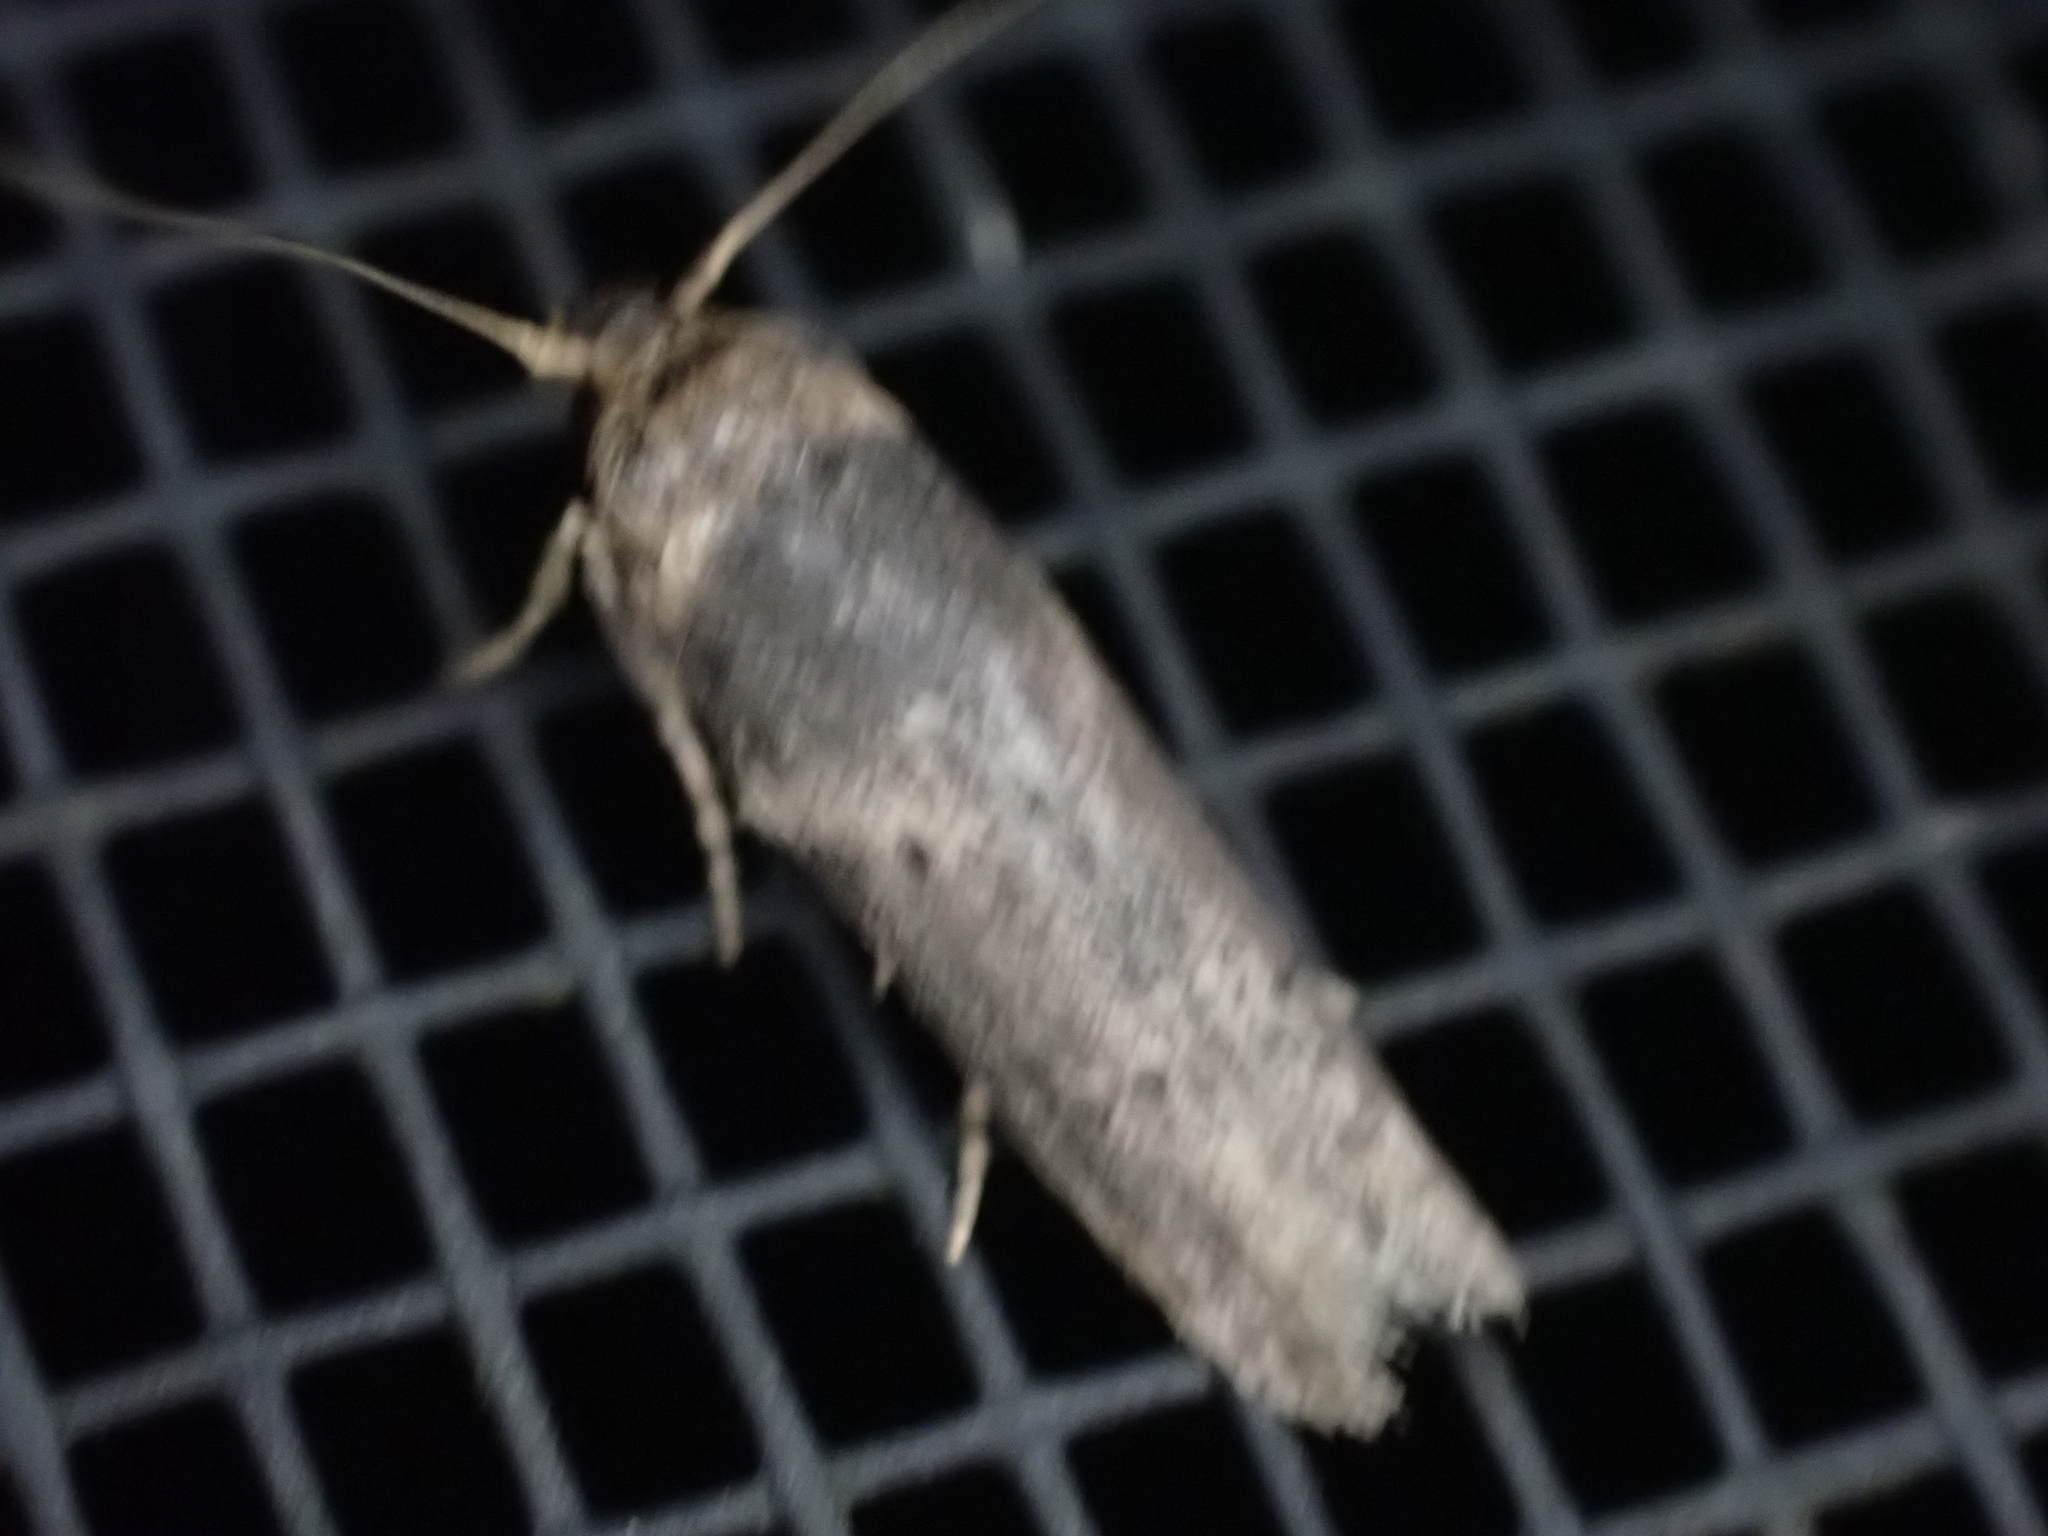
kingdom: Animalia
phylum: Arthropoda
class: Insecta
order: Lepidoptera
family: Blastobasidae
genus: Holcocera
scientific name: Holcocera crassicornella
